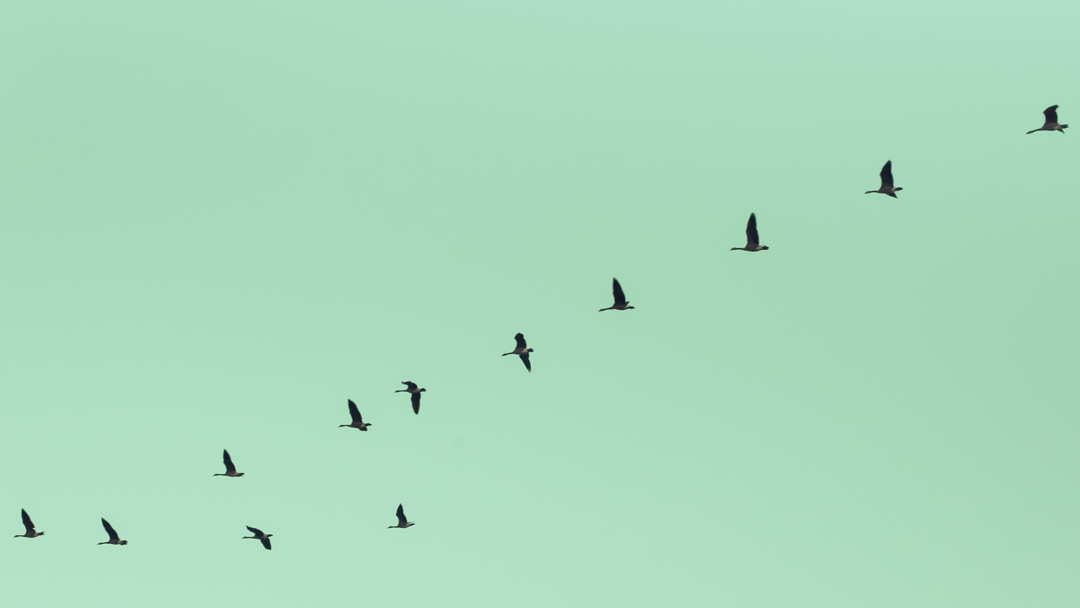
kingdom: Animalia
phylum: Chordata
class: Aves
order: Anseriformes
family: Anatidae
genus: Branta
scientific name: Branta canadensis
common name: Canada goose
